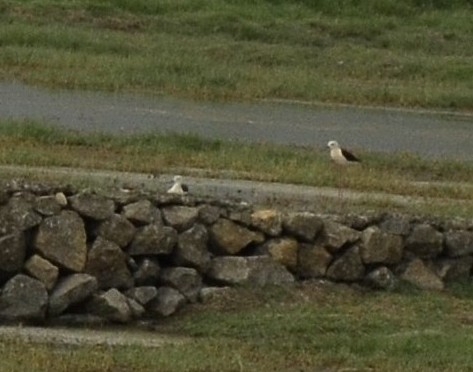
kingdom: Animalia
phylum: Chordata
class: Aves
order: Charadriiformes
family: Recurvirostridae
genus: Himantopus
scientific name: Himantopus himantopus
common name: Black-winged stilt
